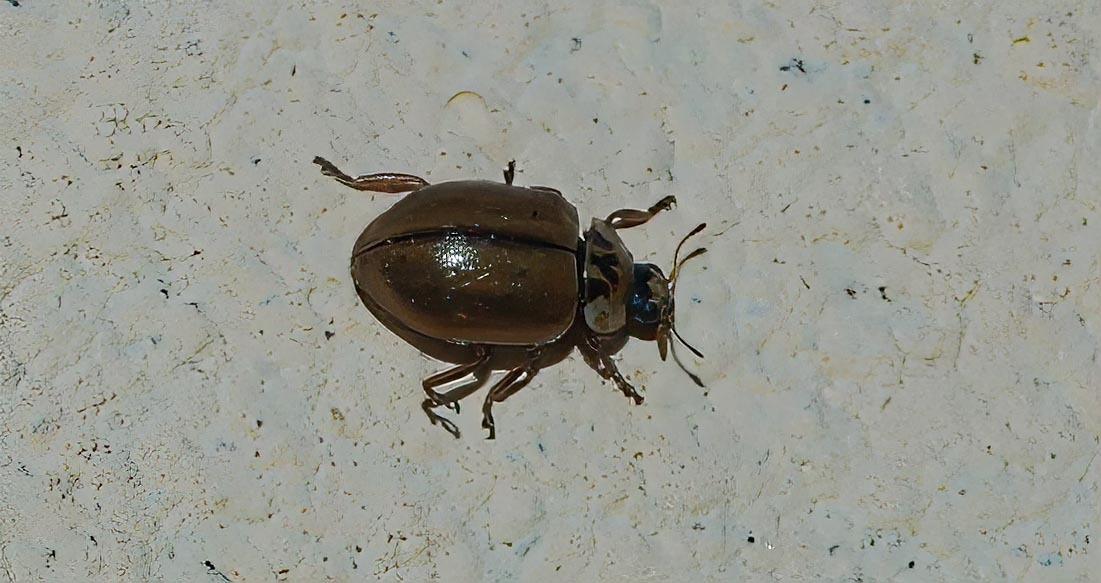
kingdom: Animalia
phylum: Arthropoda
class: Insecta
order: Coleoptera
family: Coccinellidae
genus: Aphidecta
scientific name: Aphidecta obliterata
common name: Larch ladybird
